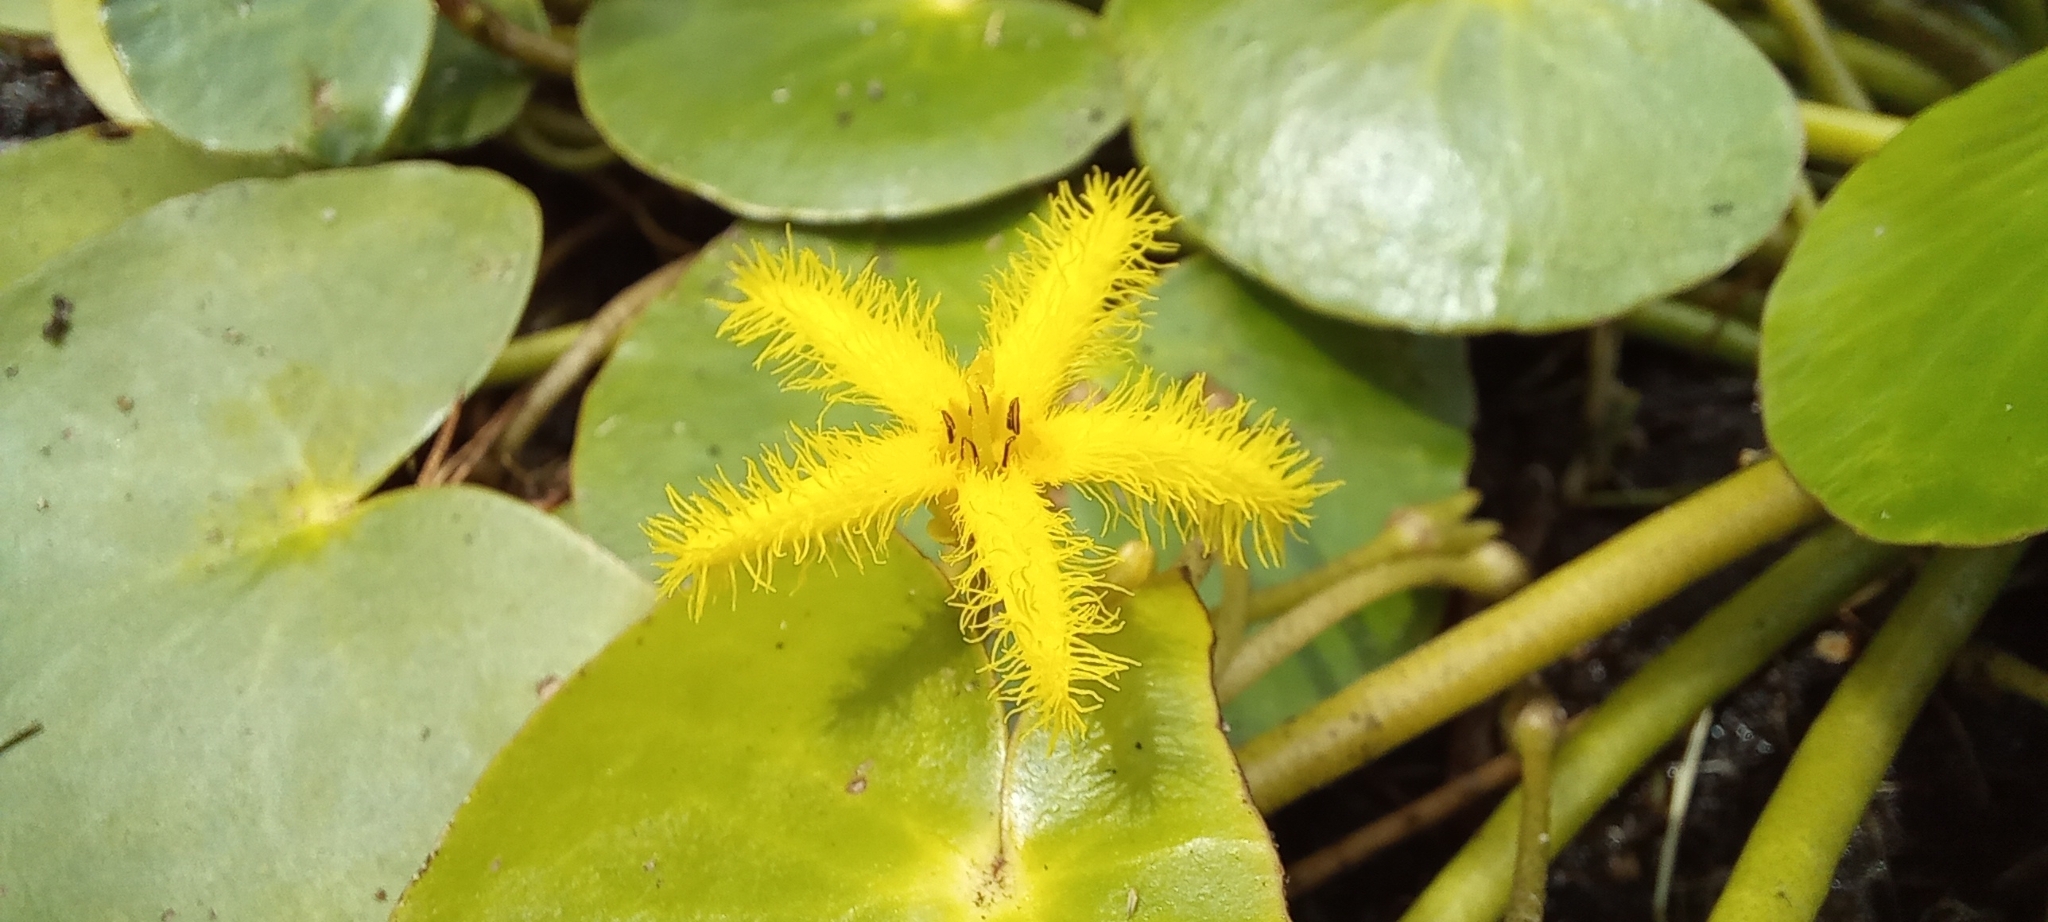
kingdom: Plantae
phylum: Tracheophyta
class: Magnoliopsida
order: Asterales
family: Menyanthaceae
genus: Nymphoides
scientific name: Nymphoides thunbergiana
